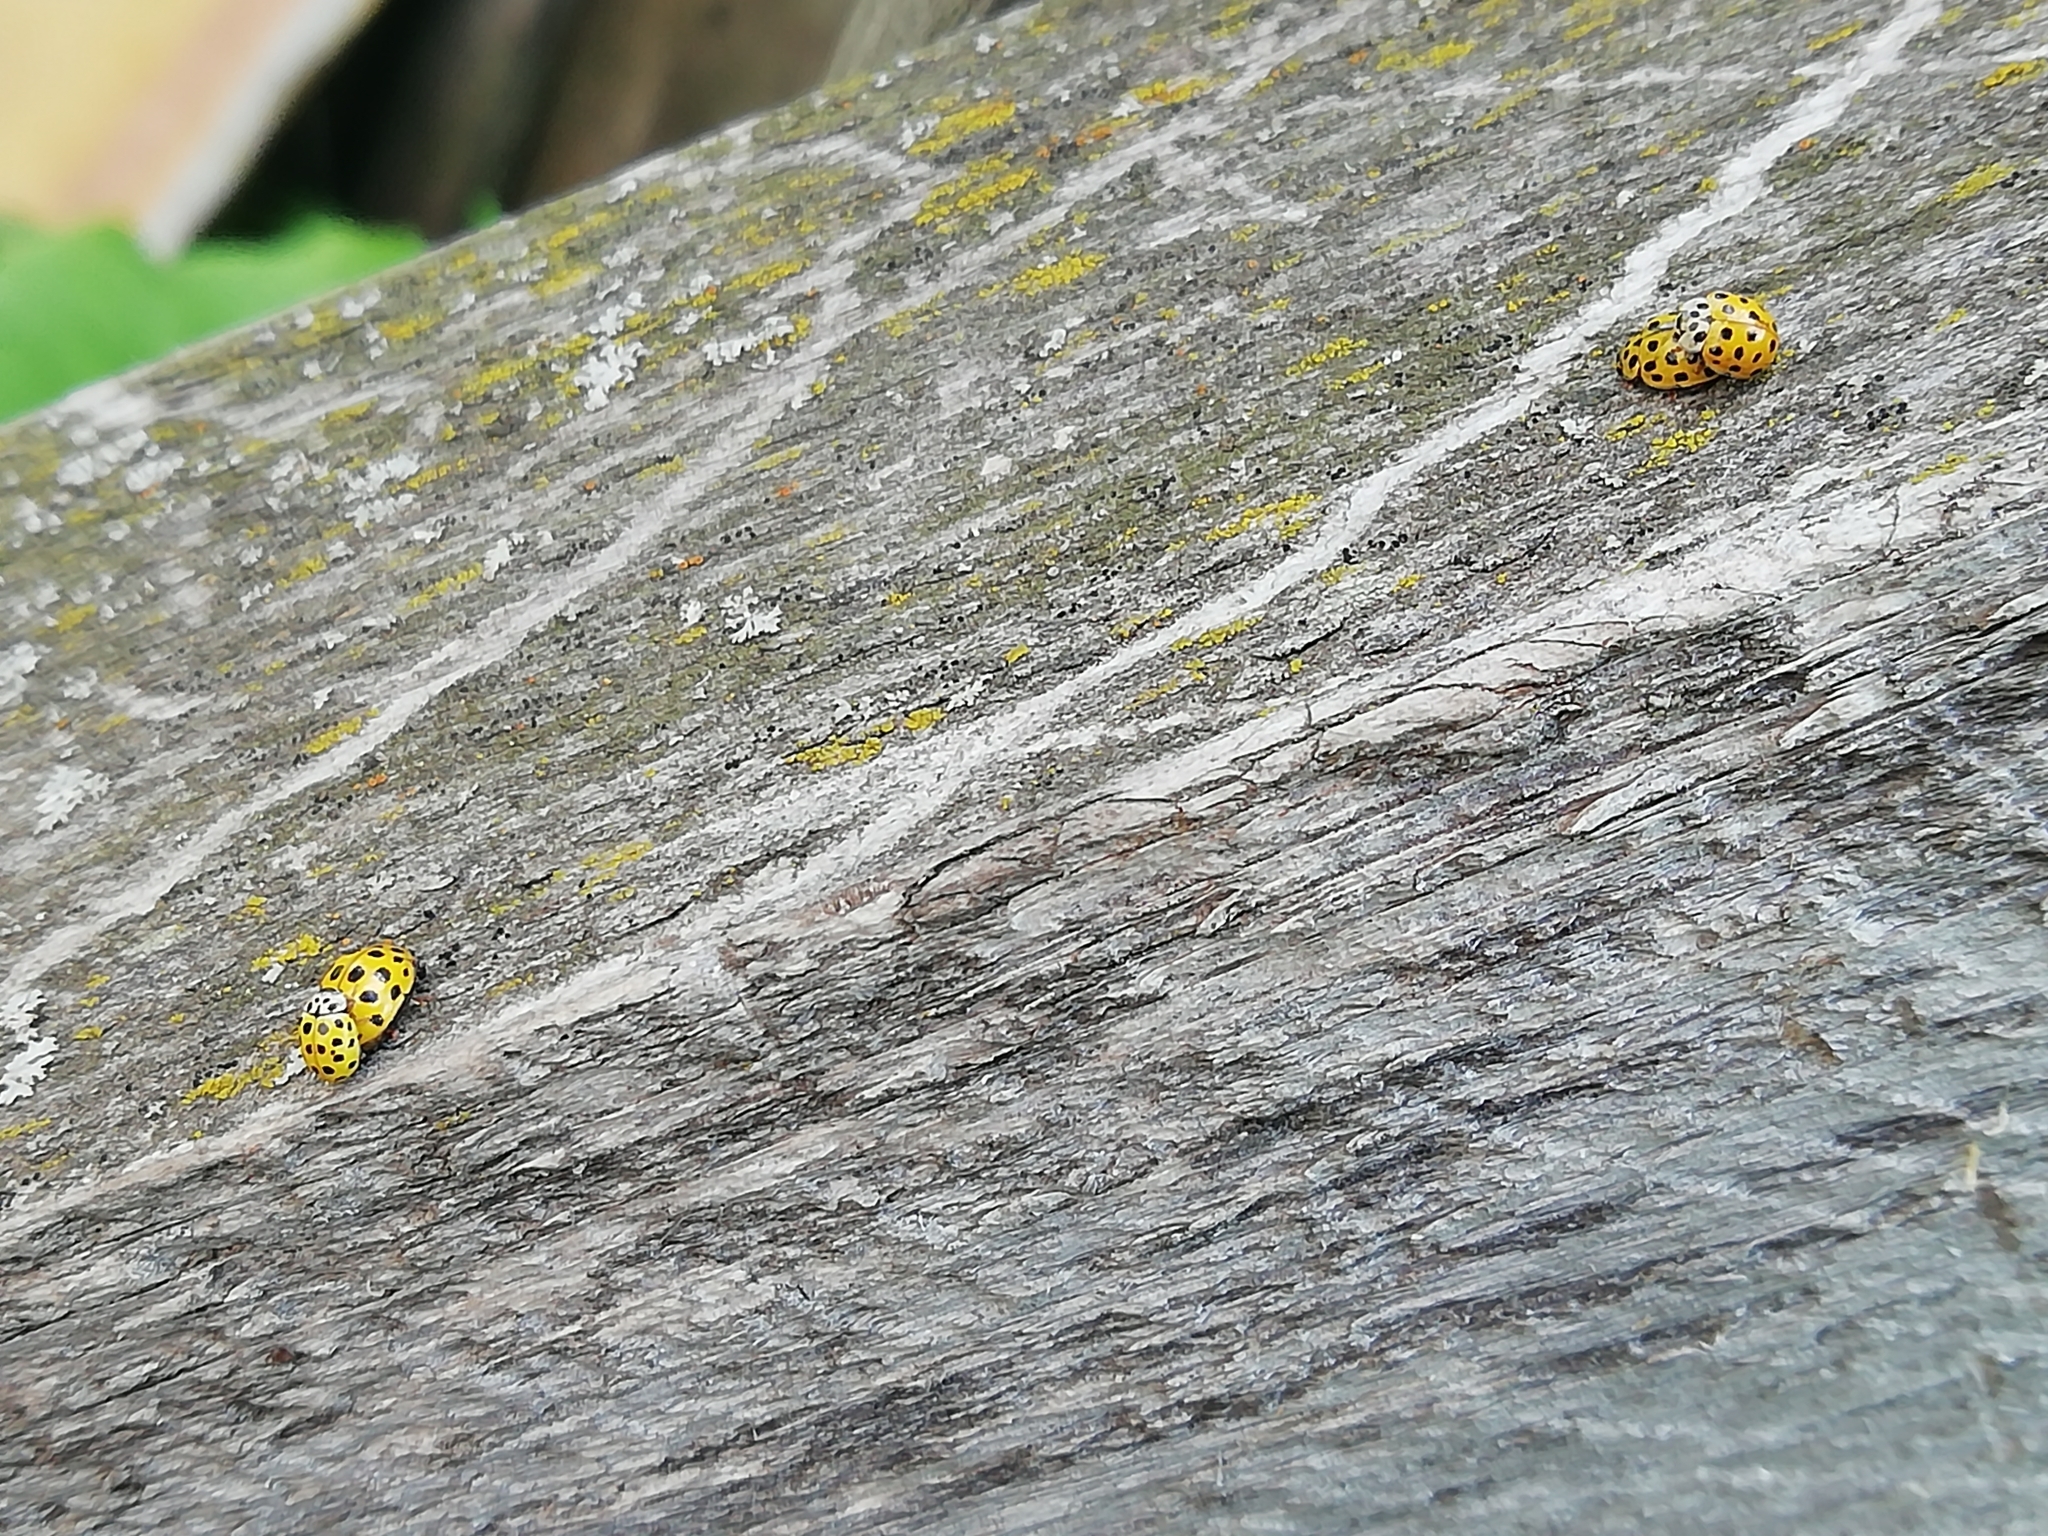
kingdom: Animalia
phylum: Arthropoda
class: Insecta
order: Coleoptera
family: Coccinellidae
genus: Psyllobora
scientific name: Psyllobora vigintiduopunctata
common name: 22-spot ladybird
